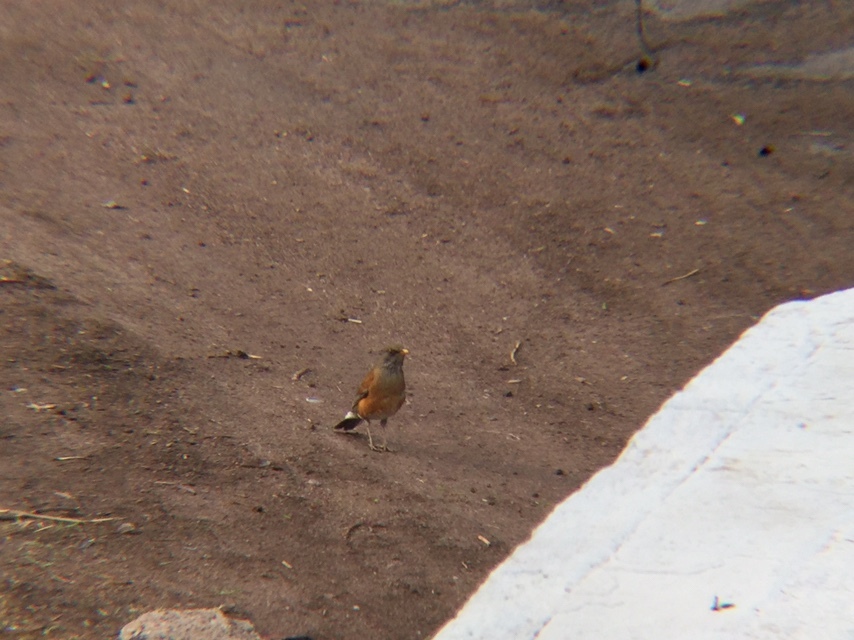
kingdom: Animalia
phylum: Chordata
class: Aves
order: Passeriformes
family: Turdidae
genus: Turdus
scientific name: Turdus rufopalliatus
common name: Rufous-backed robin
